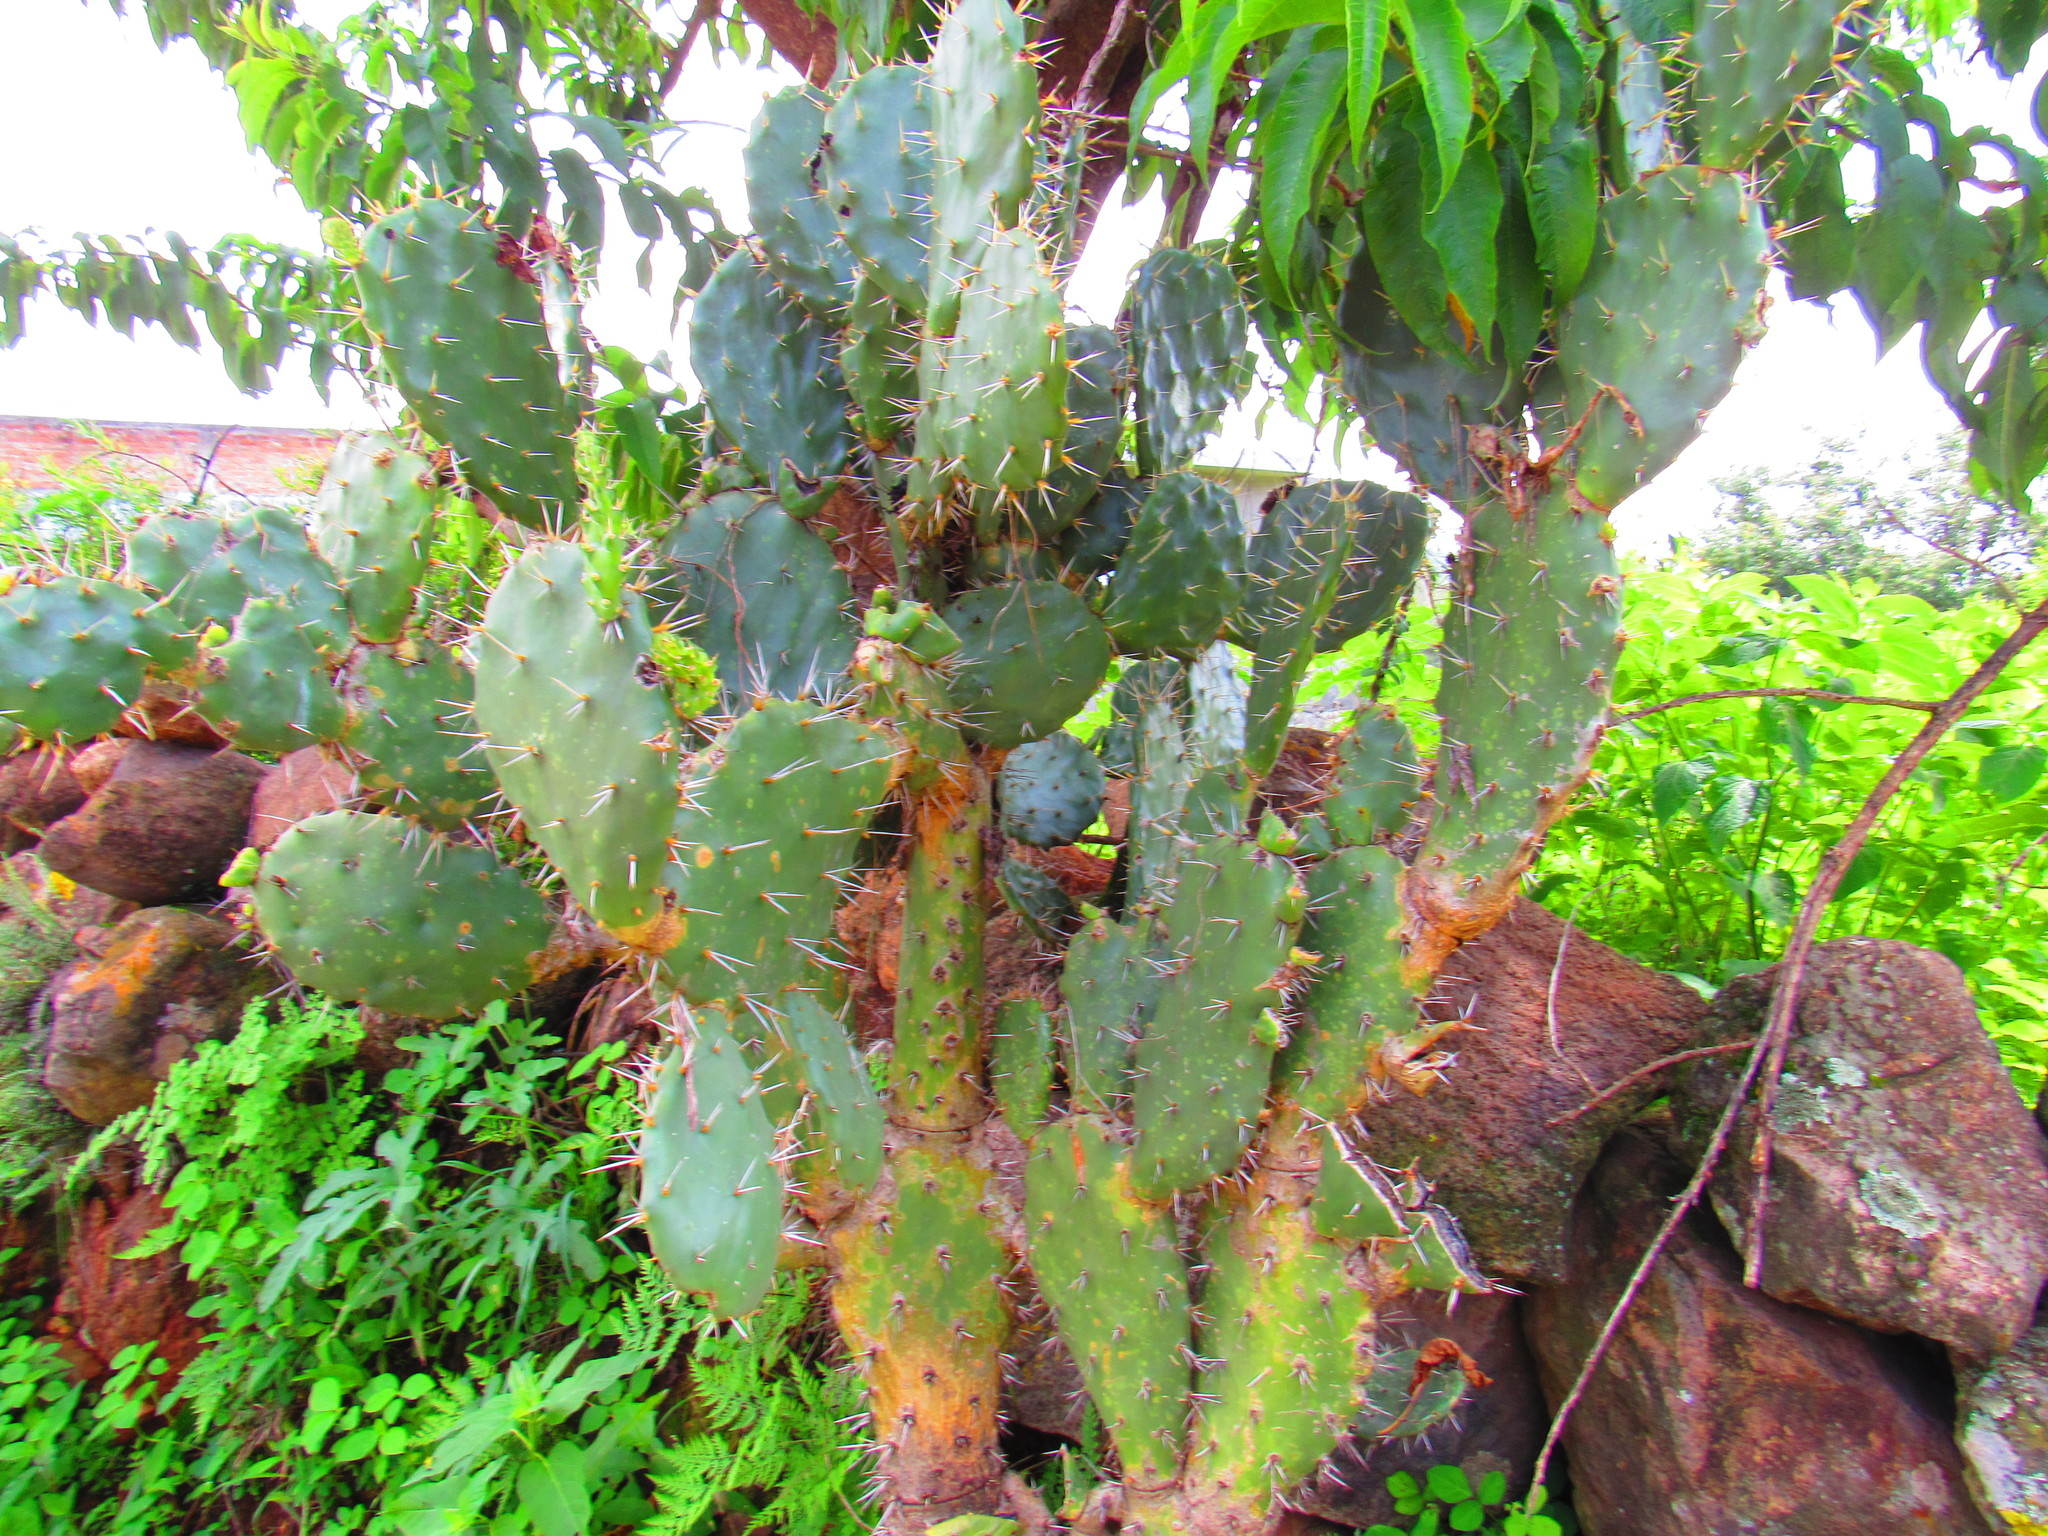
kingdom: Plantae
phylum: Tracheophyta
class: Magnoliopsida
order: Caryophyllales
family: Cactaceae
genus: Opuntia
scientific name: Opuntia tomentosa
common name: Woollyjoint pricklypear
